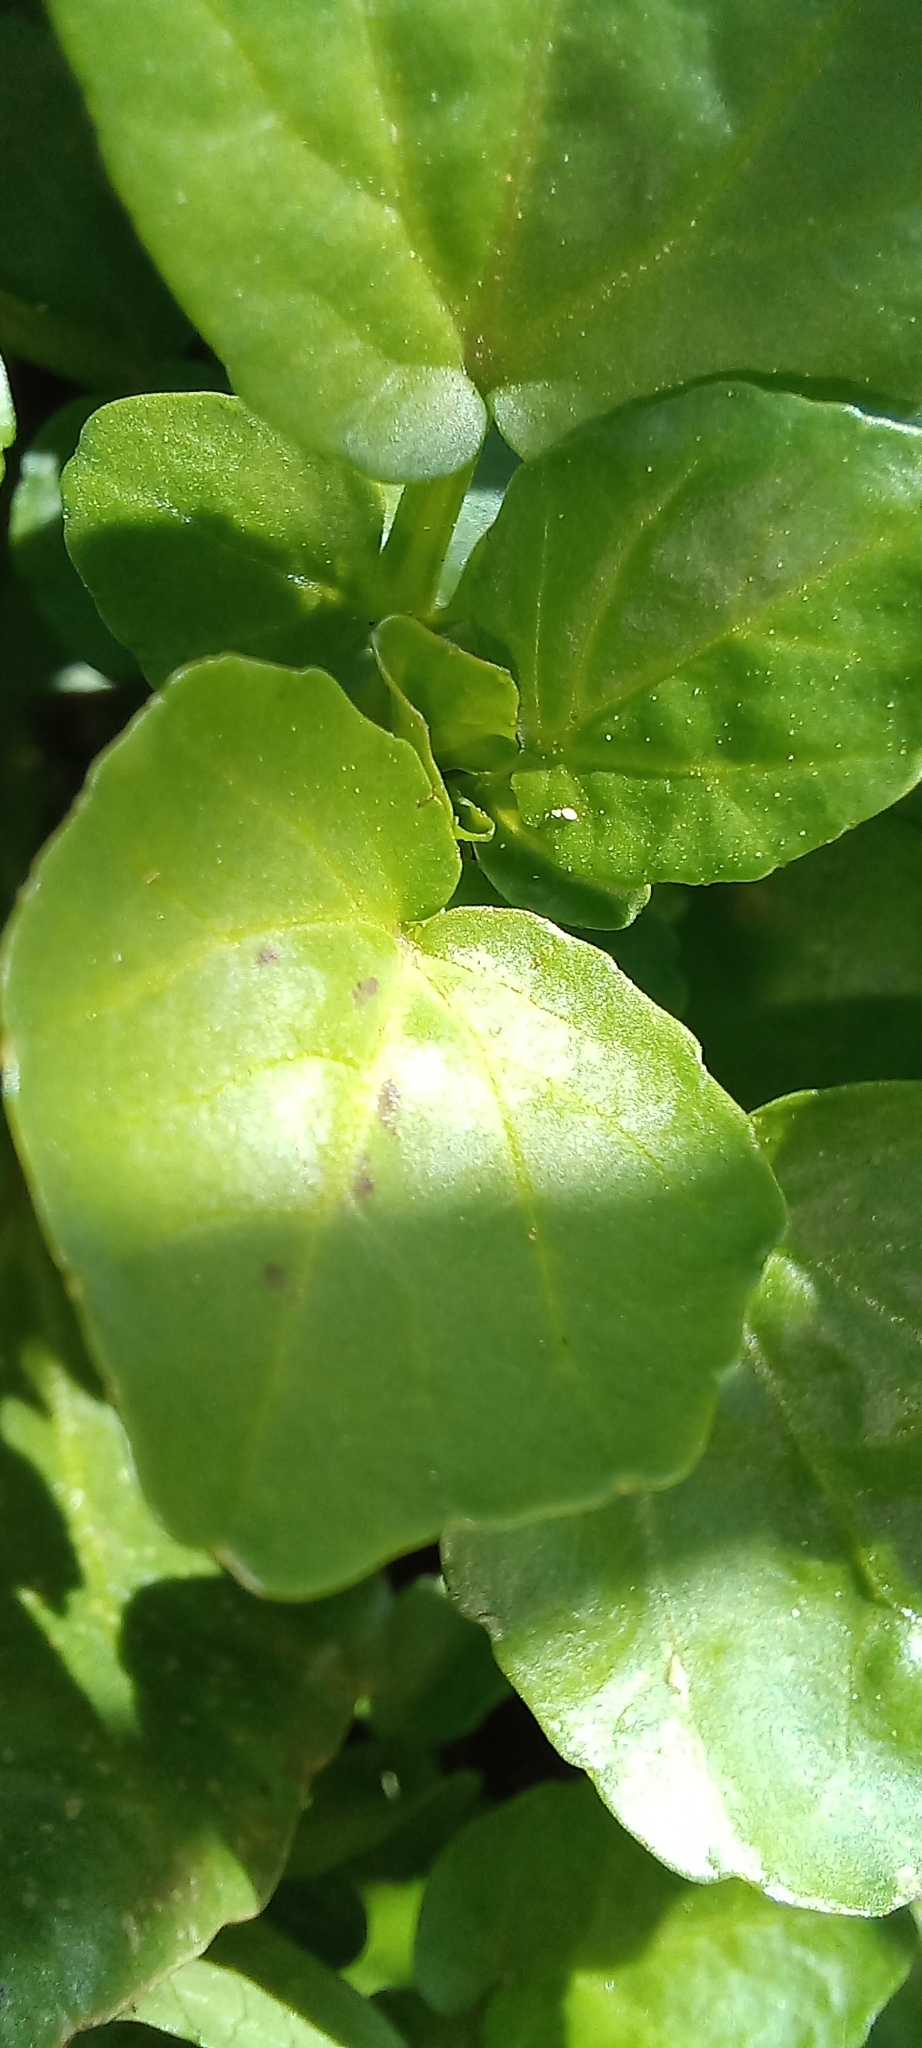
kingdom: Plantae
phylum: Tracheophyta
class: Magnoliopsida
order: Brassicales
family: Brassicaceae
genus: Nasturtium
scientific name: Nasturtium officinale
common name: Watercress
